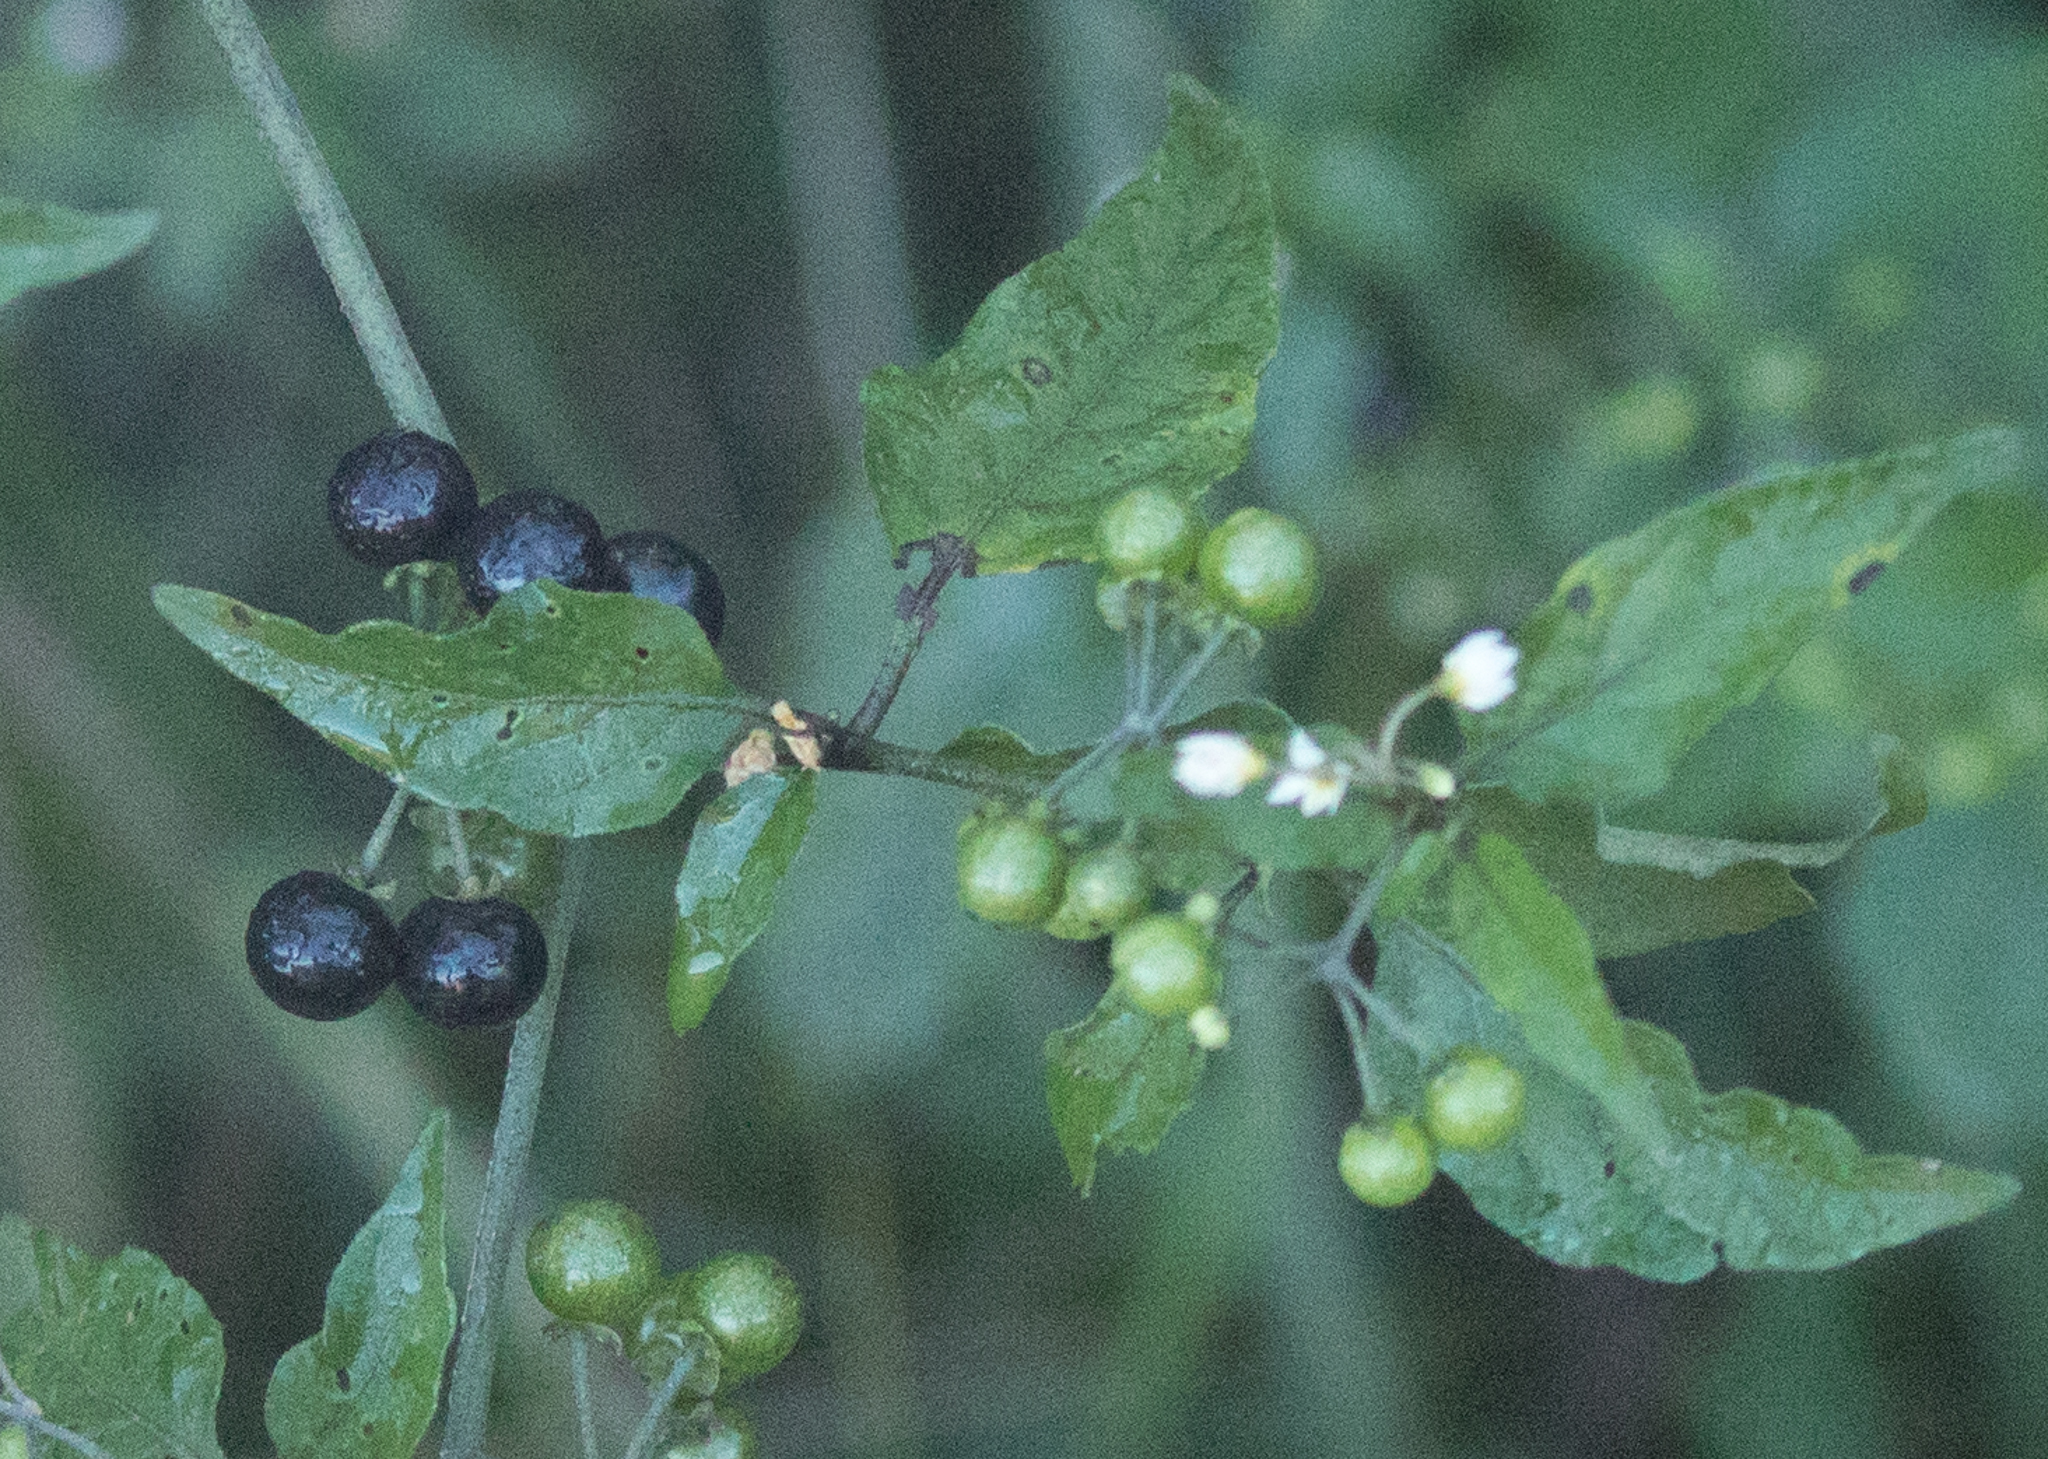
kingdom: Plantae
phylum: Tracheophyta
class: Magnoliopsida
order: Solanales
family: Solanaceae
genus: Solanum
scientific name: Solanum americanum
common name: American black nightshade
